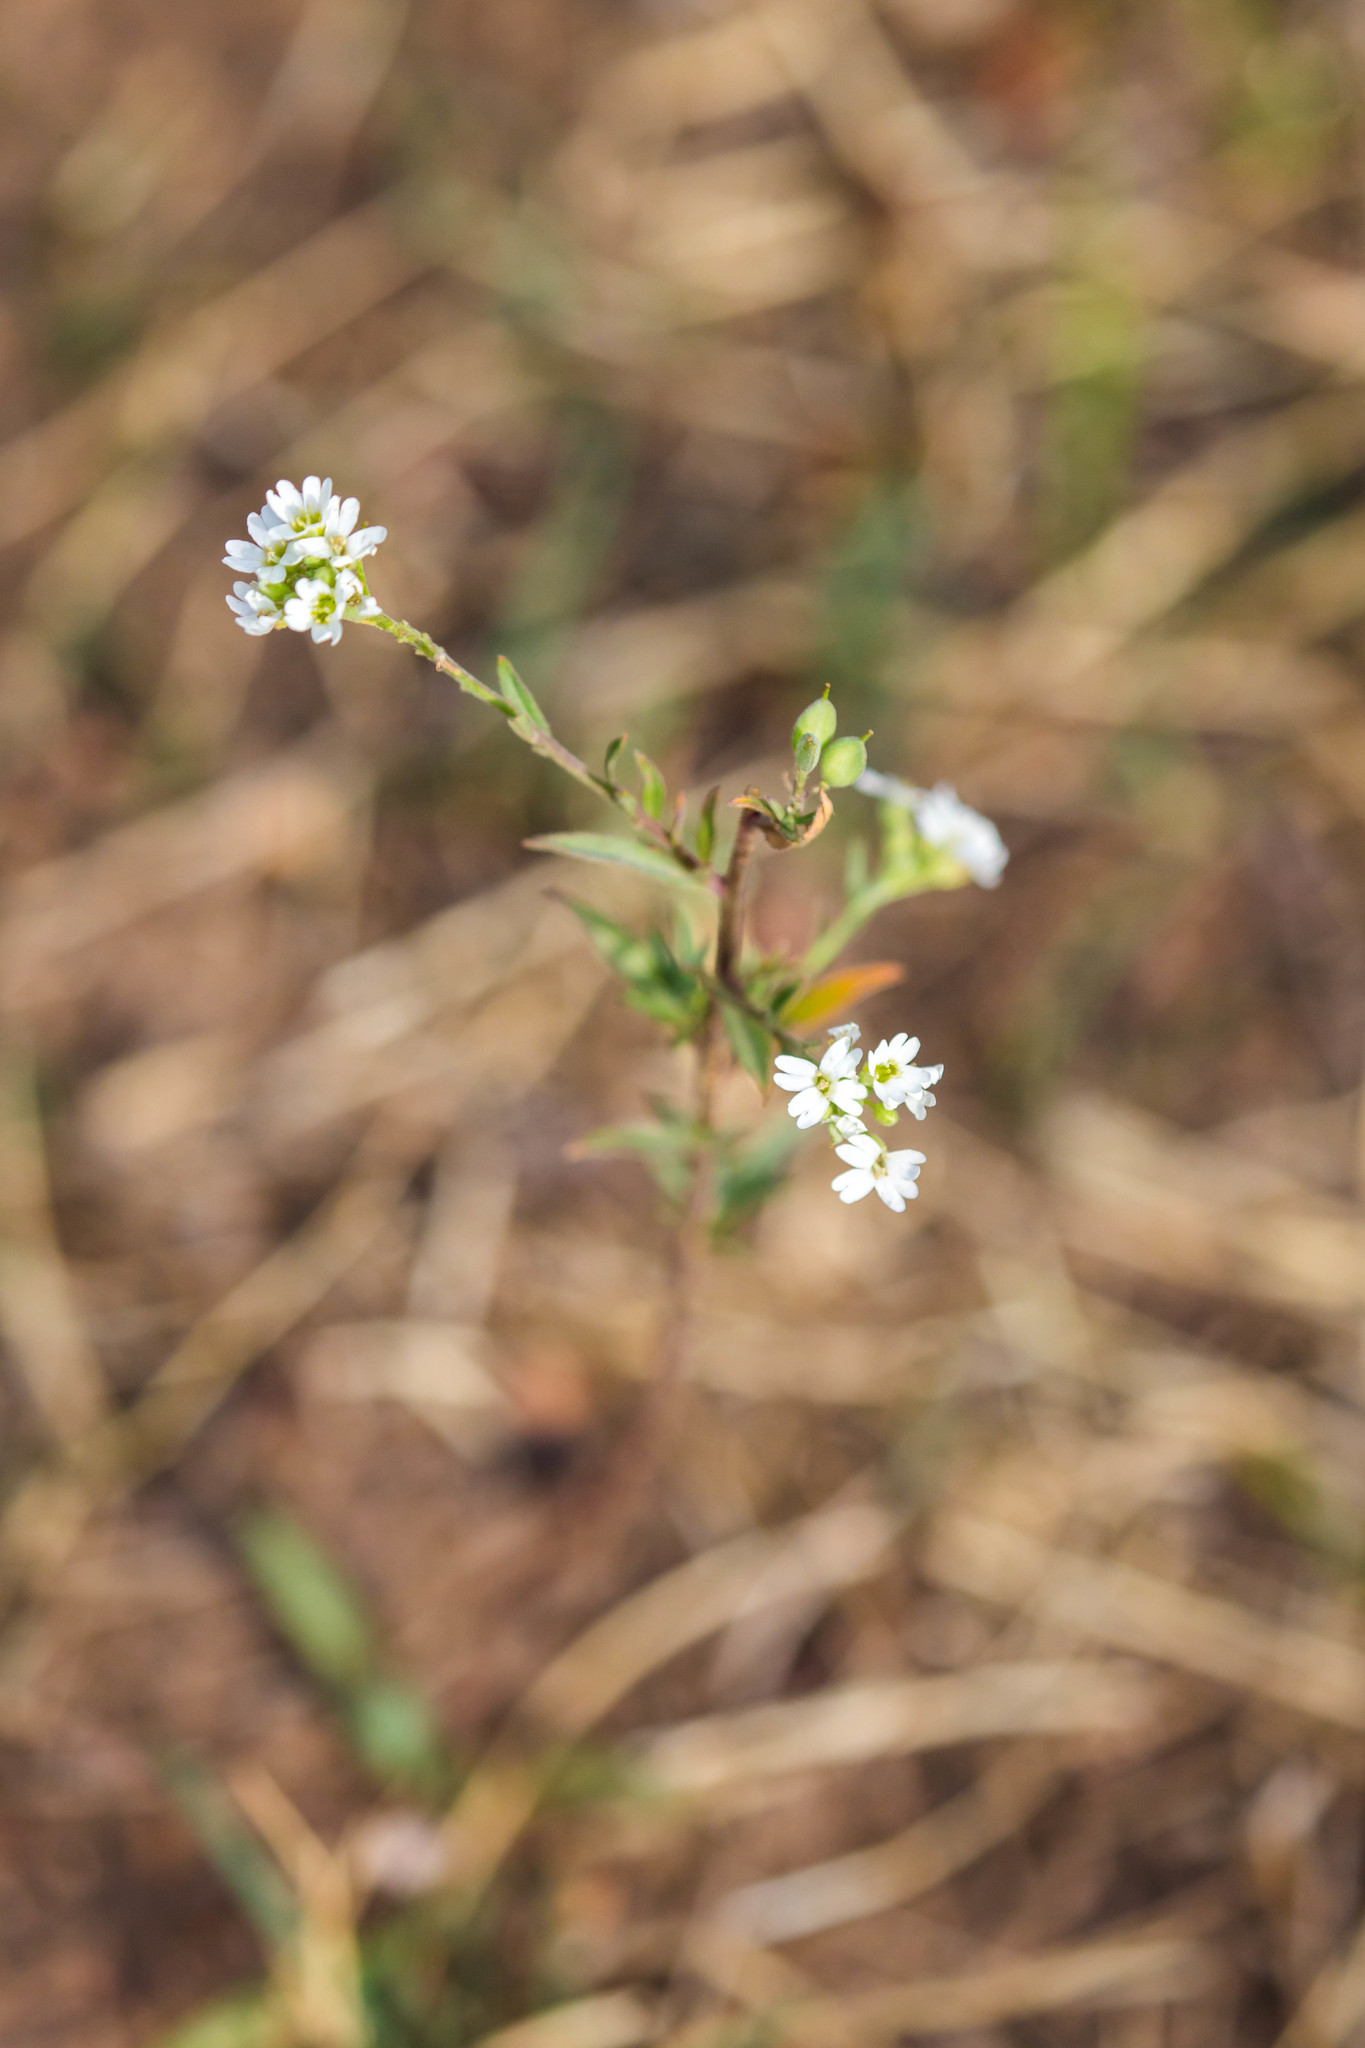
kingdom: Plantae
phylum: Tracheophyta
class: Magnoliopsida
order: Brassicales
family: Brassicaceae
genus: Berteroa
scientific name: Berteroa incana
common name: Hoary alison
